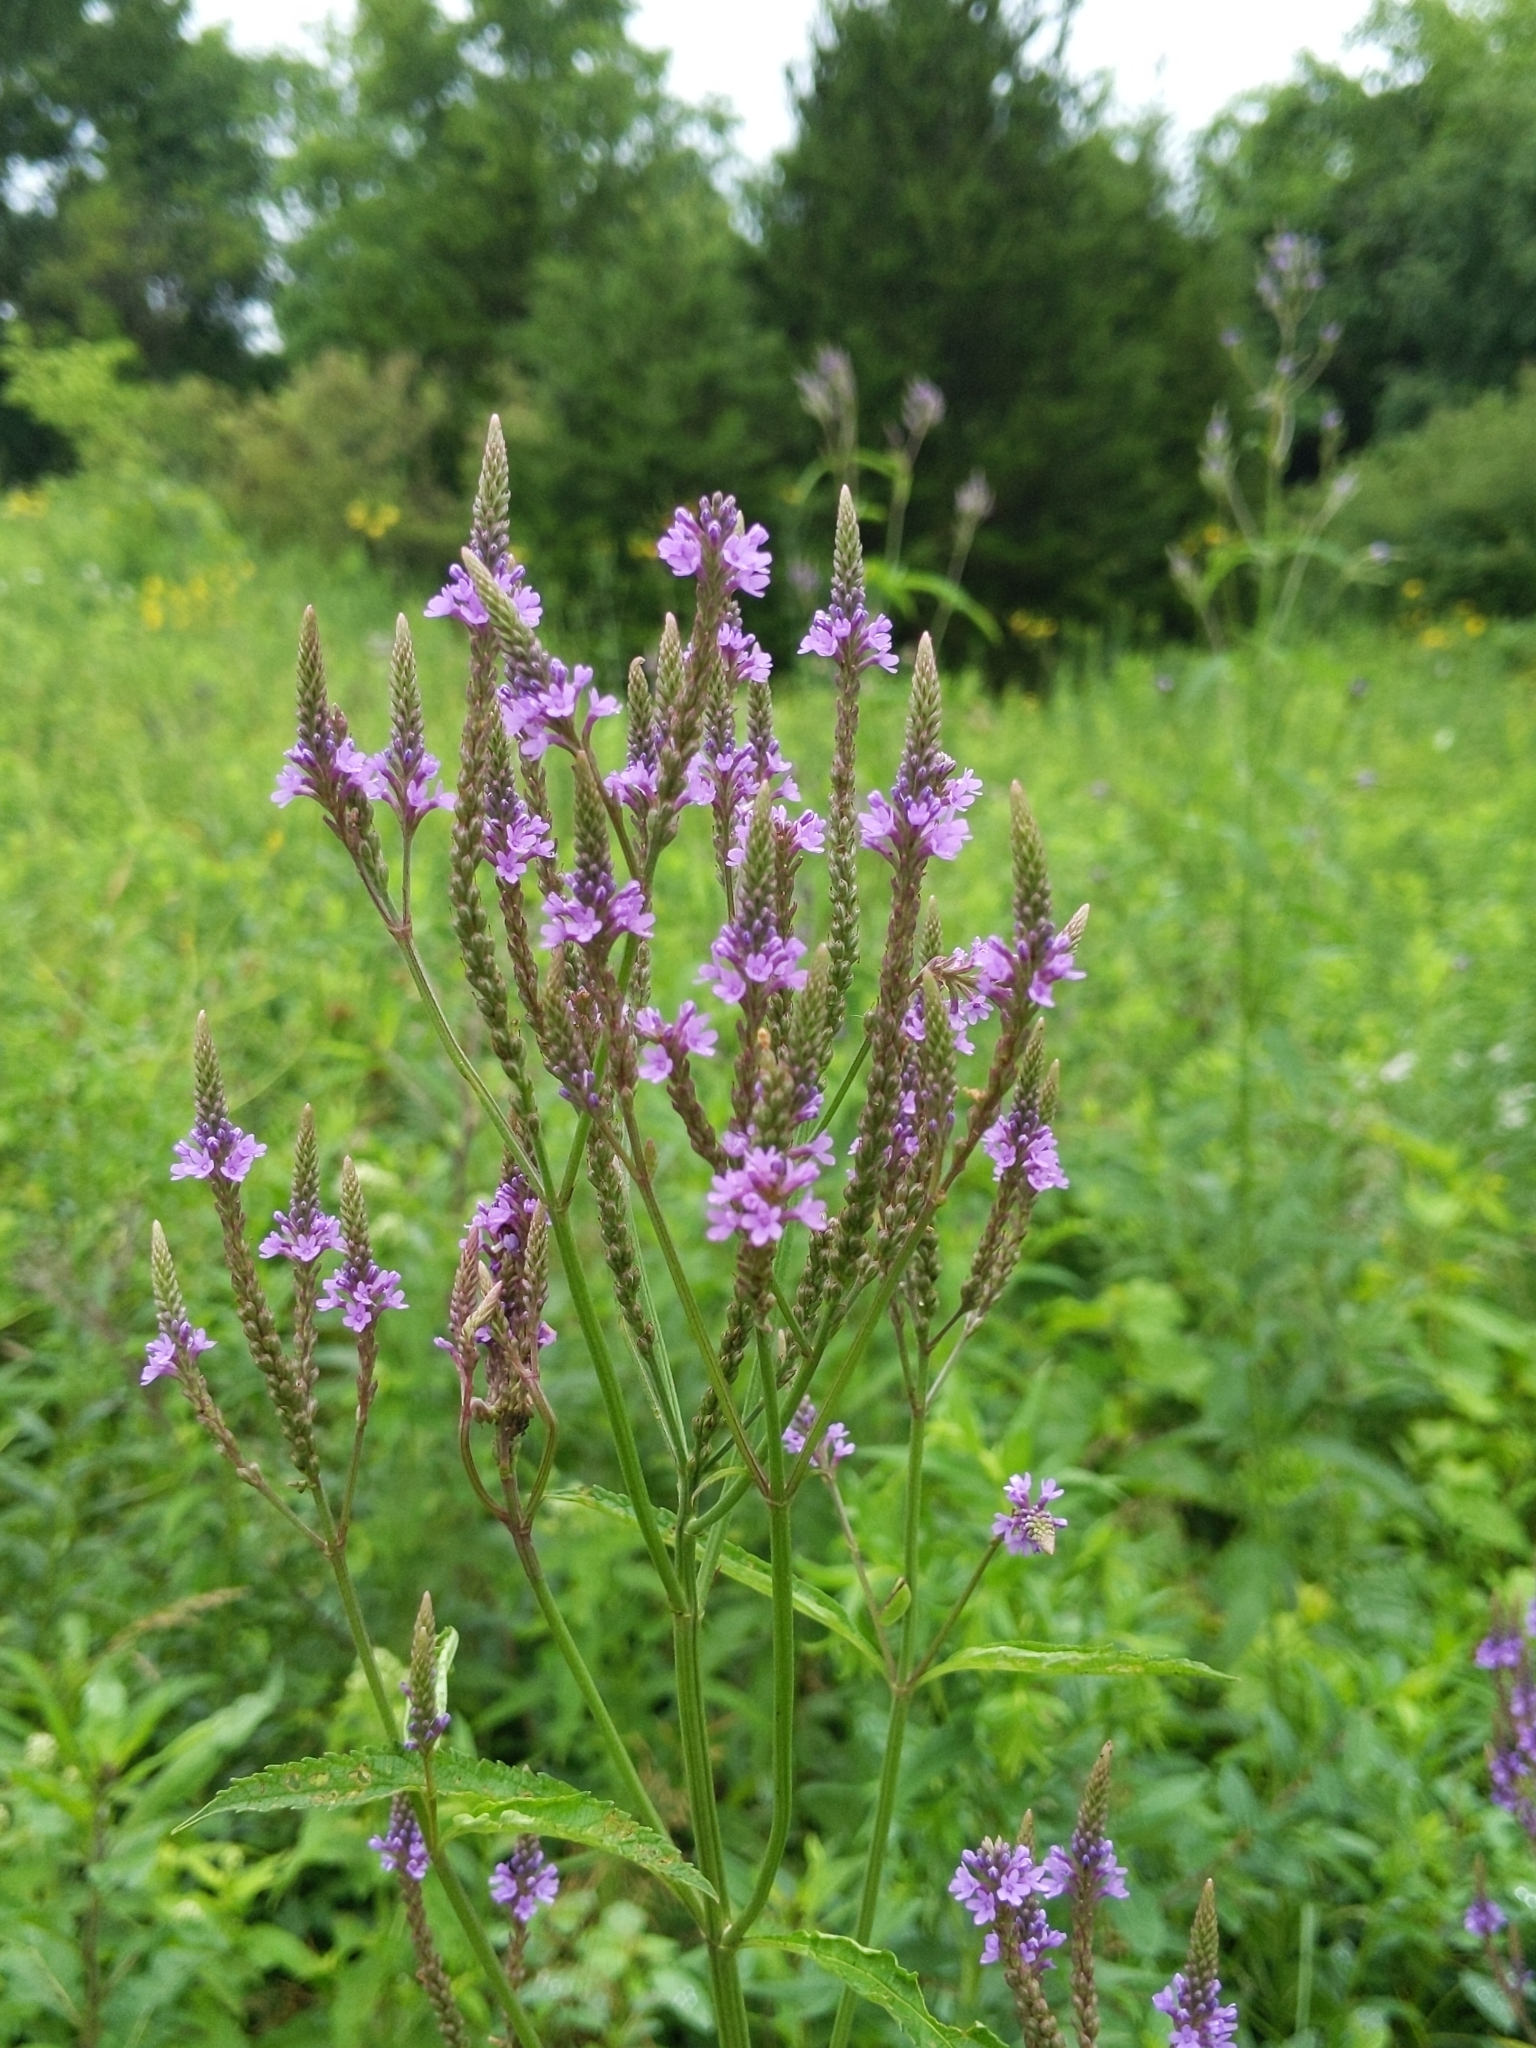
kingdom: Plantae
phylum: Tracheophyta
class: Magnoliopsida
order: Lamiales
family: Verbenaceae
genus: Verbena
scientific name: Verbena hastata
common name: American blue vervain
